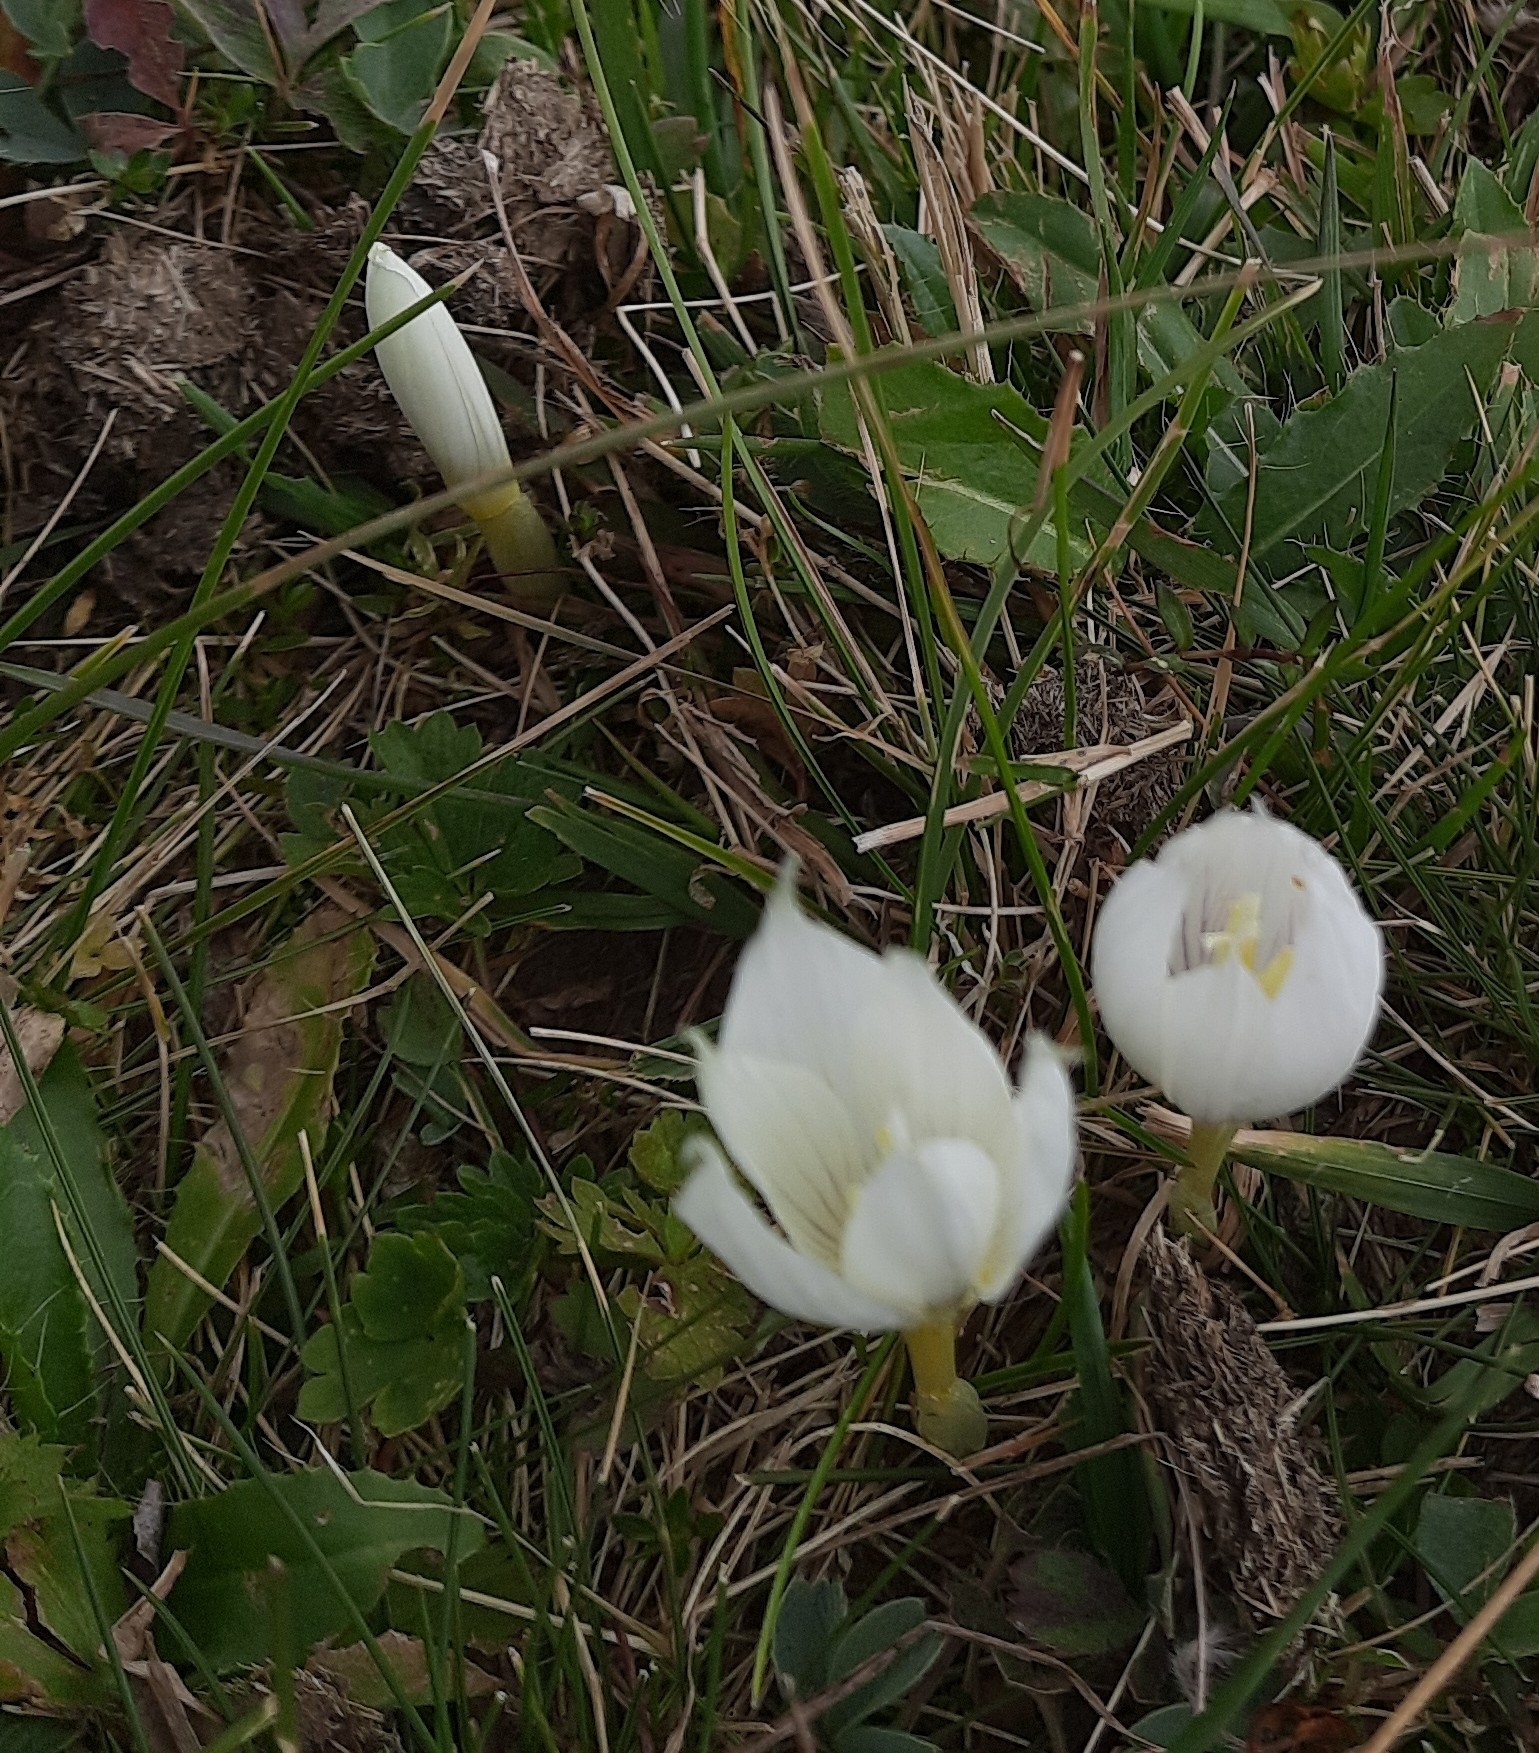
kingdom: Plantae
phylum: Tracheophyta
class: Liliopsida
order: Asparagales
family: Iridaceae
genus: Crocus
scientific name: Crocus vallicola
